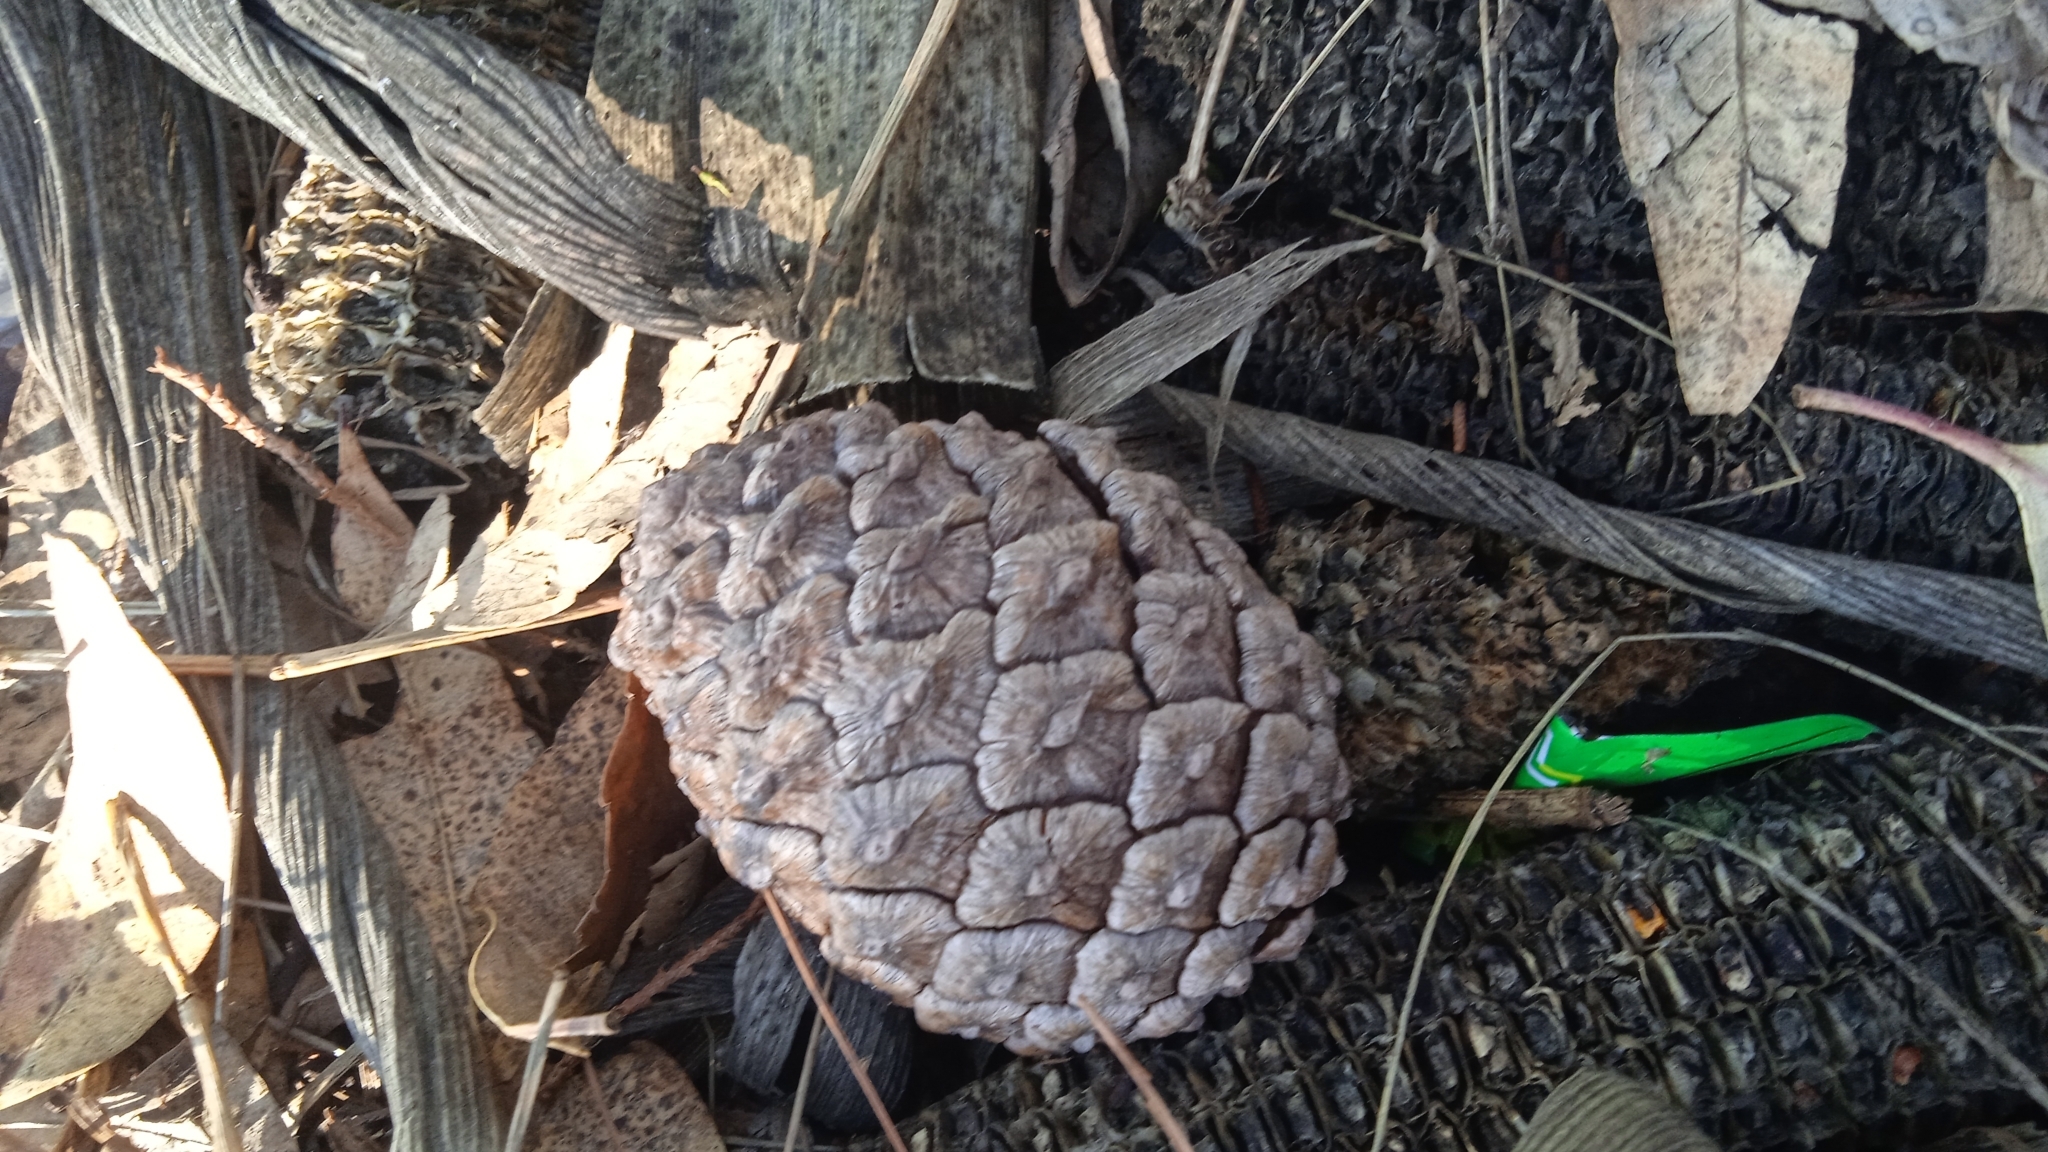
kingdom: Plantae
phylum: Tracheophyta
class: Pinopsida
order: Pinales
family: Pinaceae
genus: Pinus
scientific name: Pinus oocarpa
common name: Egg-cone pine
